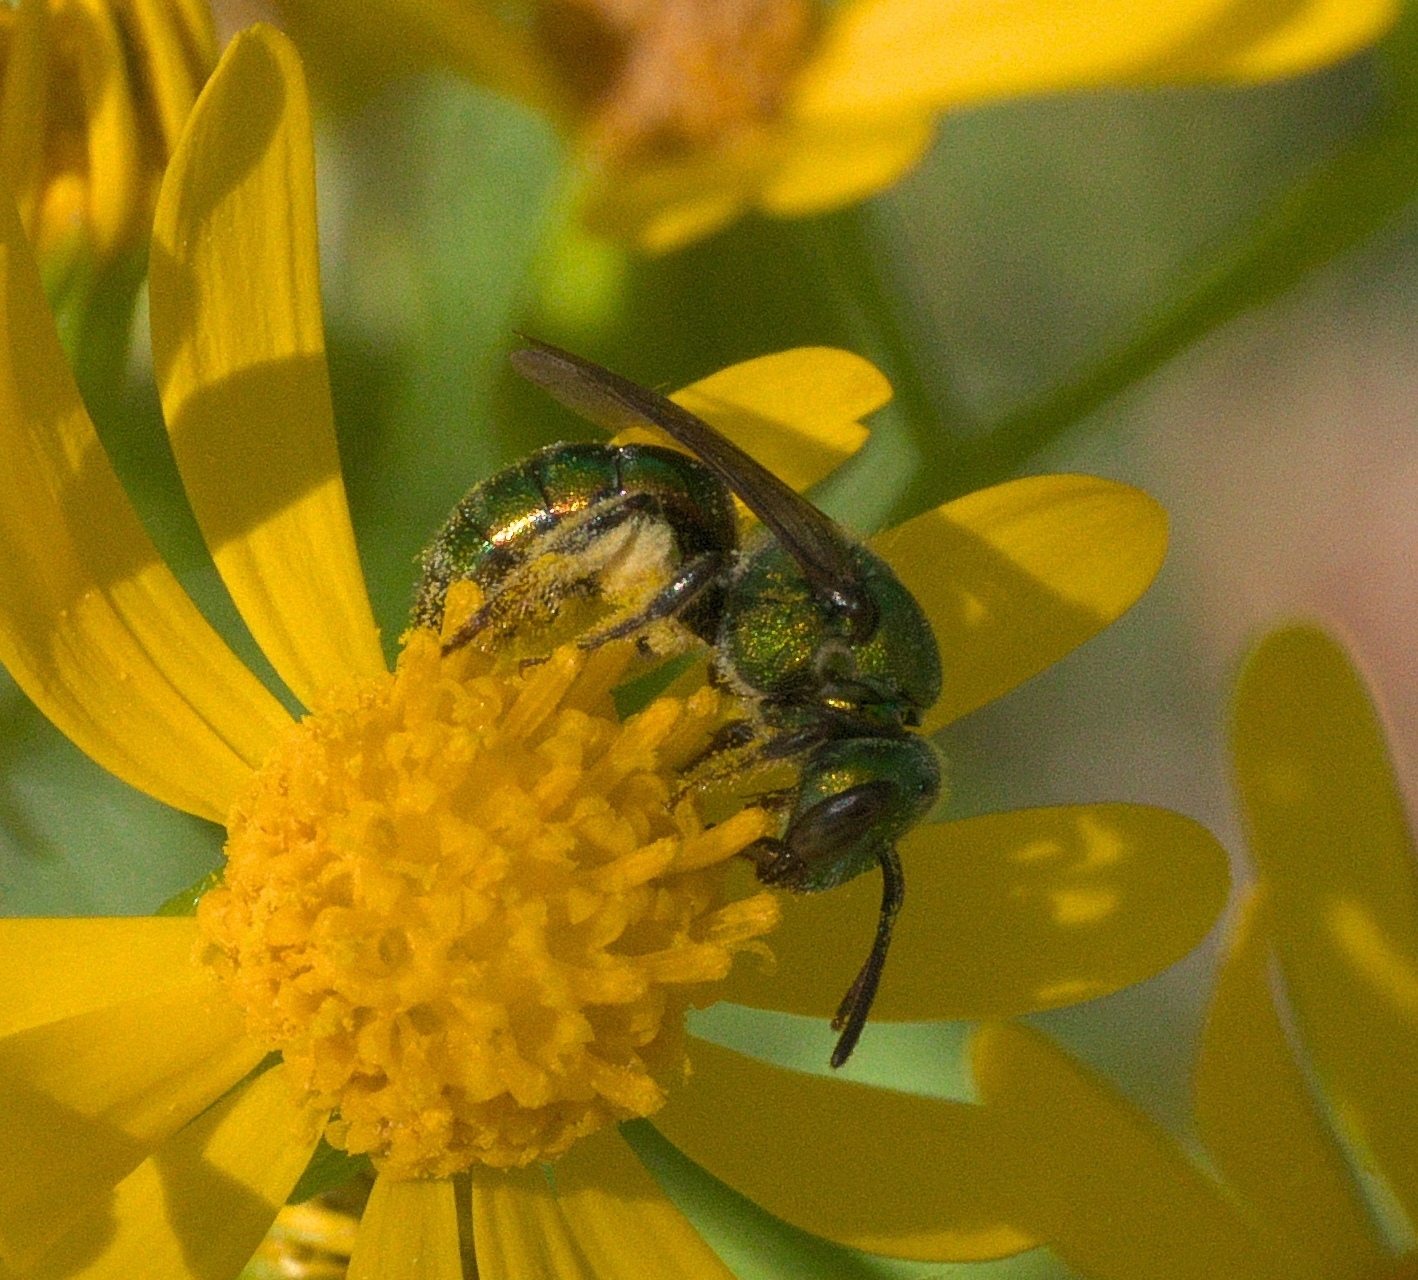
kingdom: Animalia
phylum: Arthropoda
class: Insecta
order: Hymenoptera
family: Halictidae
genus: Augochlora
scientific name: Augochlora pura
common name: Pure green sweat bee
